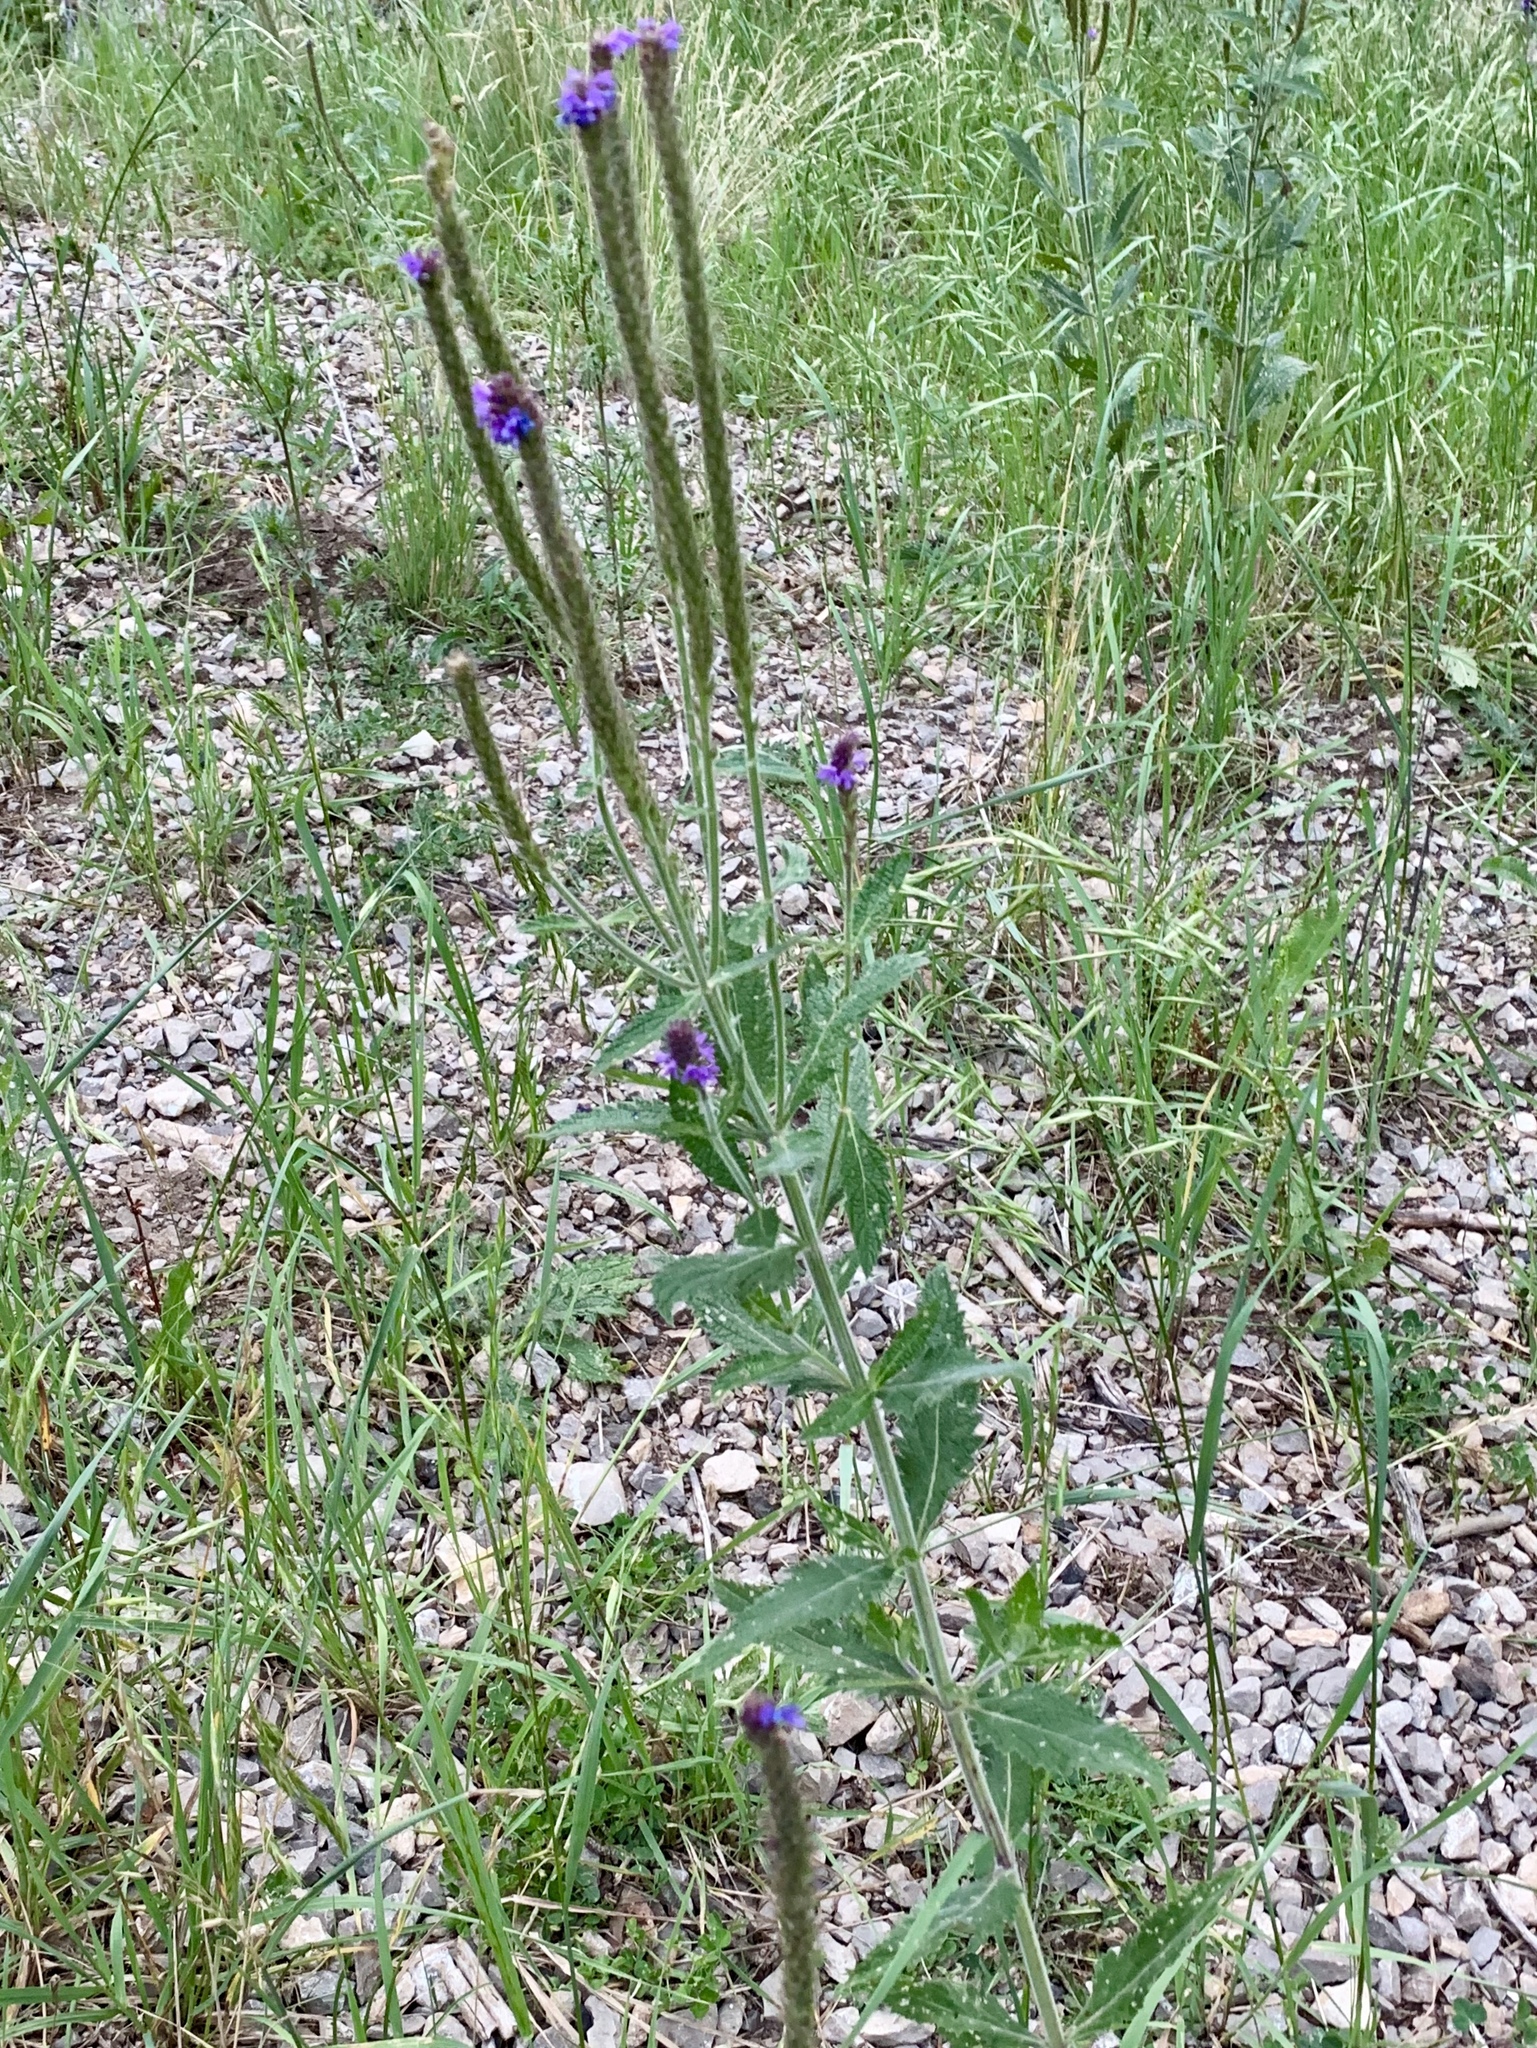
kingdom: Plantae
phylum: Tracheophyta
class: Magnoliopsida
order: Lamiales
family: Verbenaceae
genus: Verbena
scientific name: Verbena macdougalii
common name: New mexico vervain
